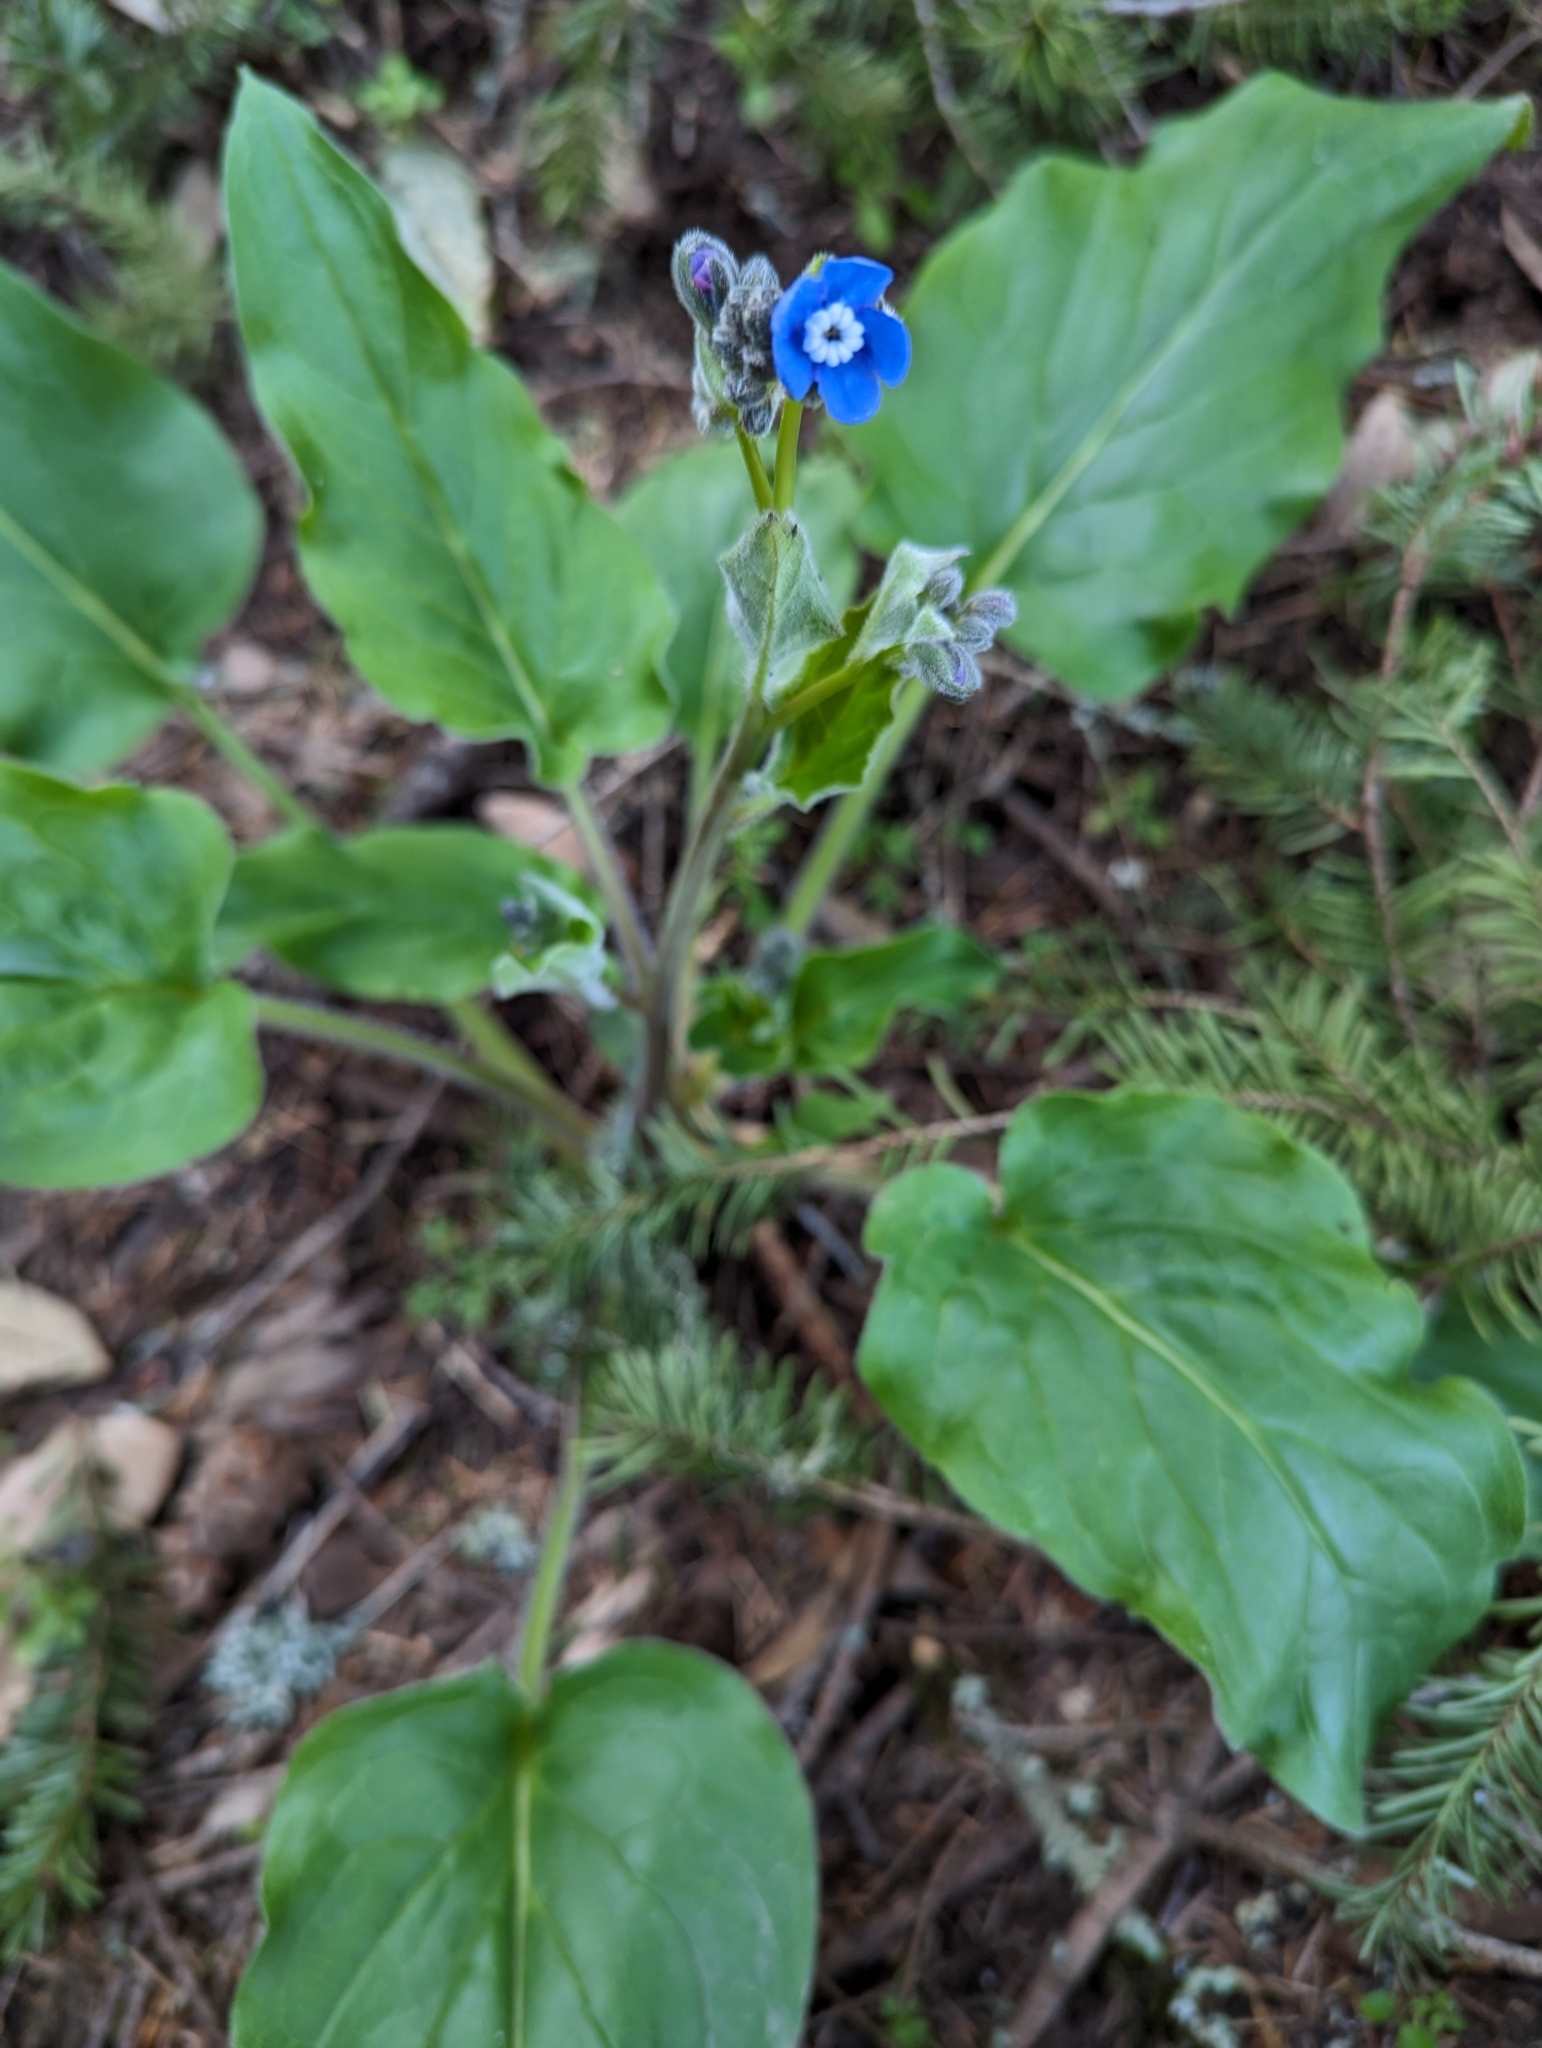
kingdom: Plantae
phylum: Tracheophyta
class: Magnoliopsida
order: Boraginales
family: Boraginaceae
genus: Adelinia
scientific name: Adelinia grande
